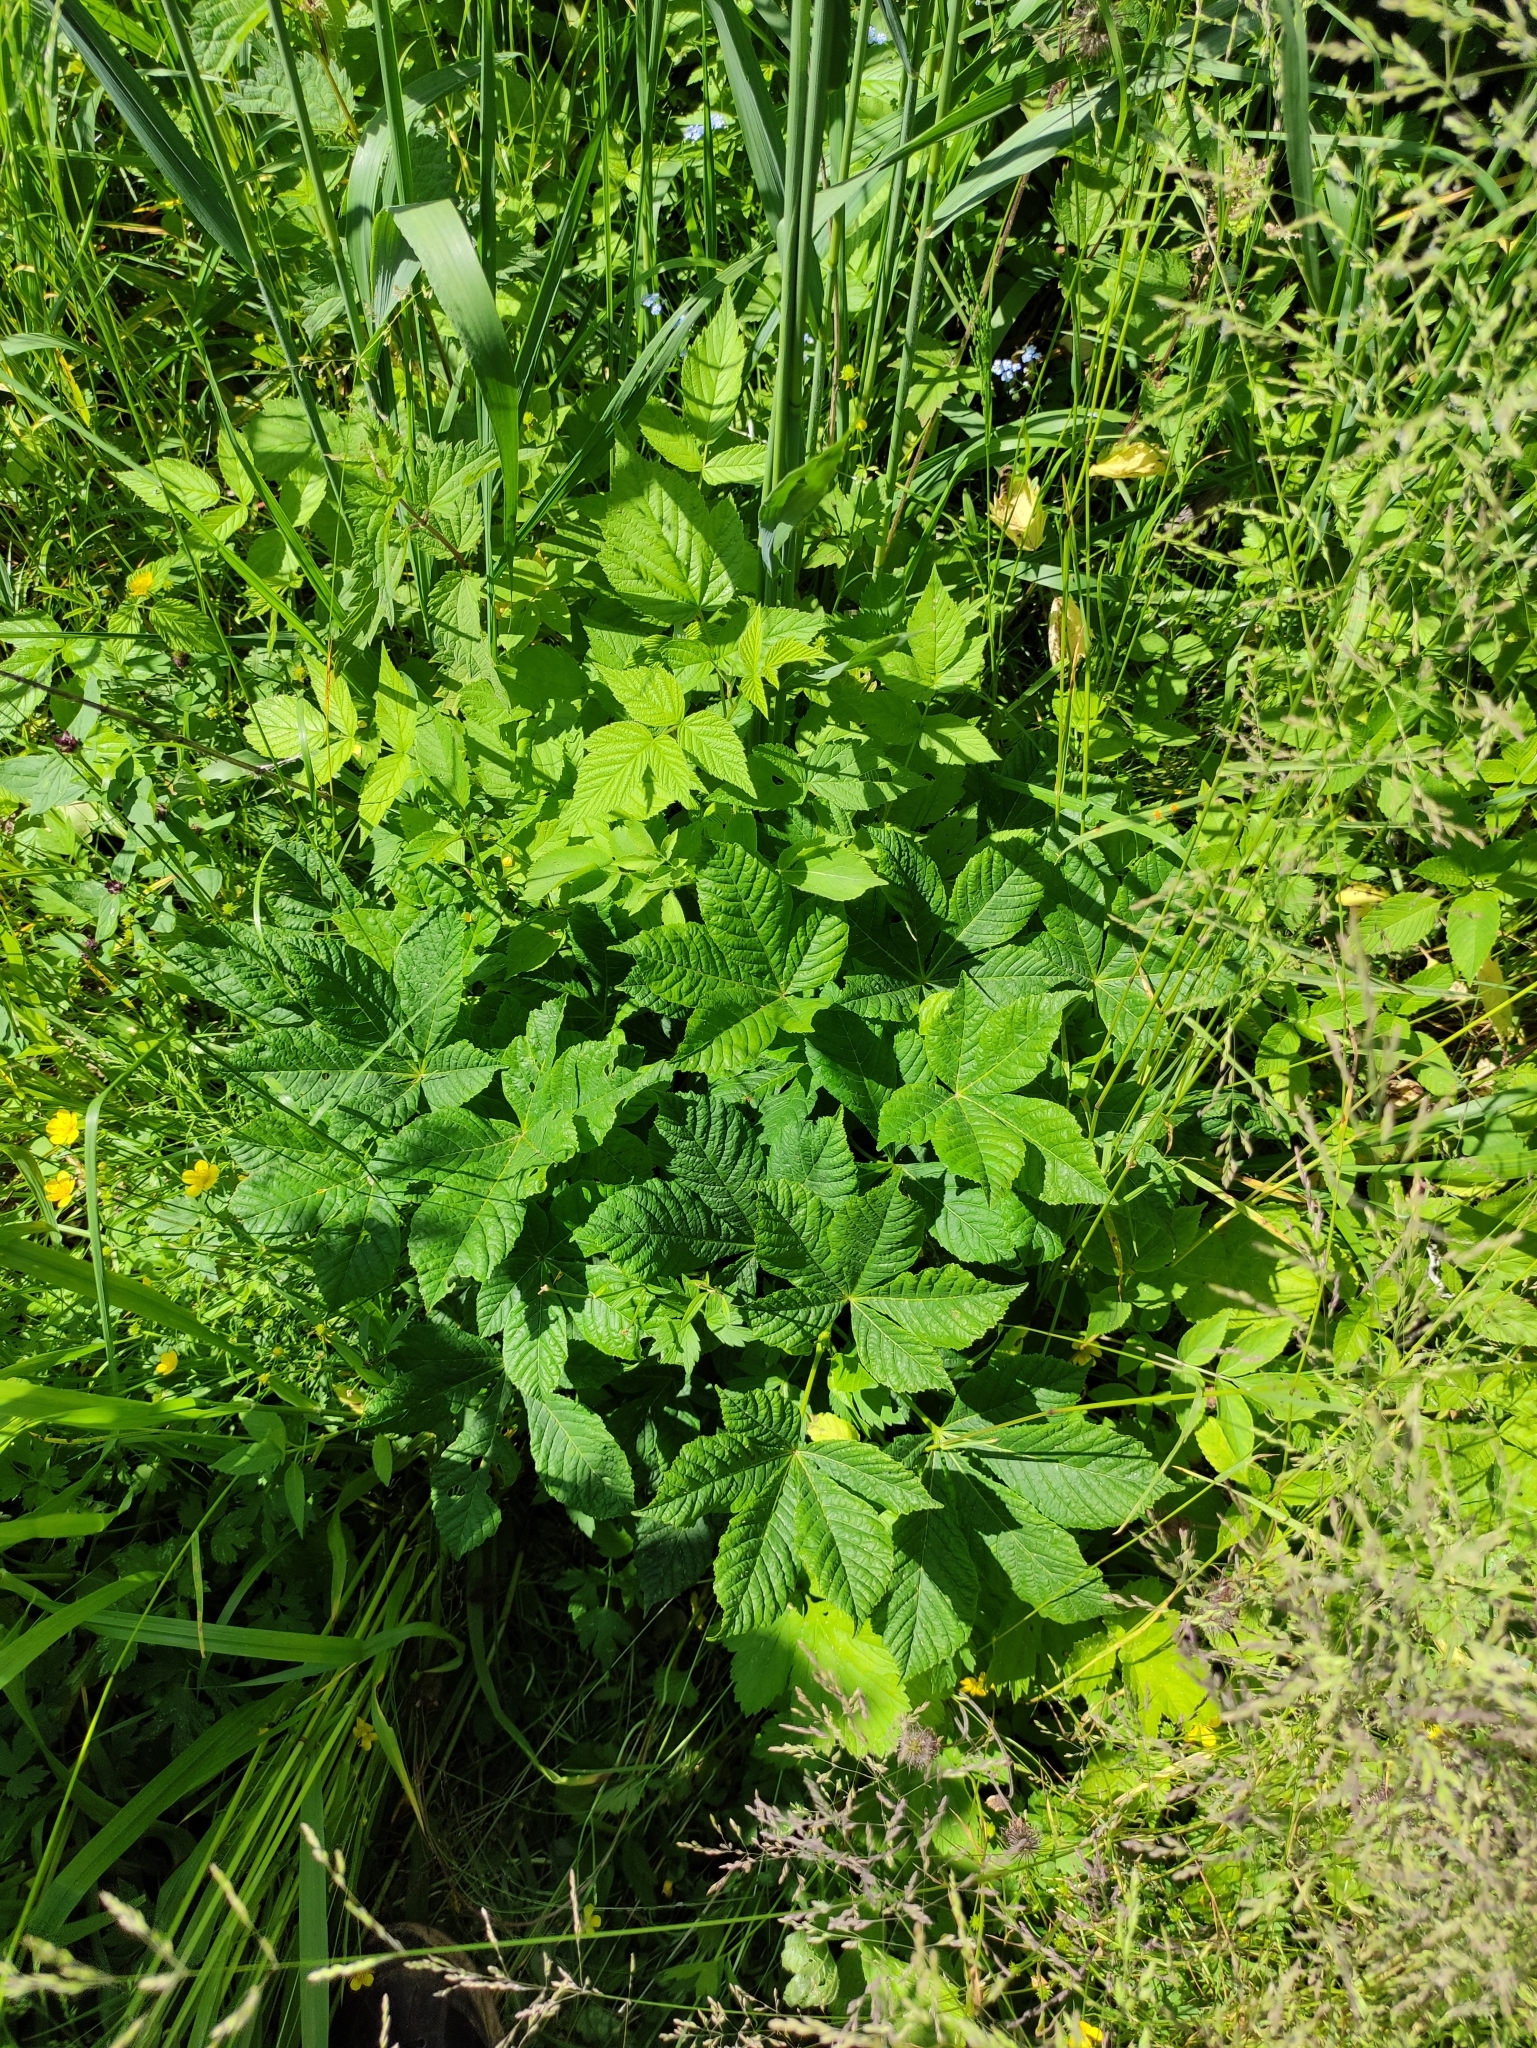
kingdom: Plantae
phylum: Tracheophyta
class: Magnoliopsida
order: Sapindales
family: Sapindaceae
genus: Aesculus
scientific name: Aesculus hippocastanum
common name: Horse-chestnut
